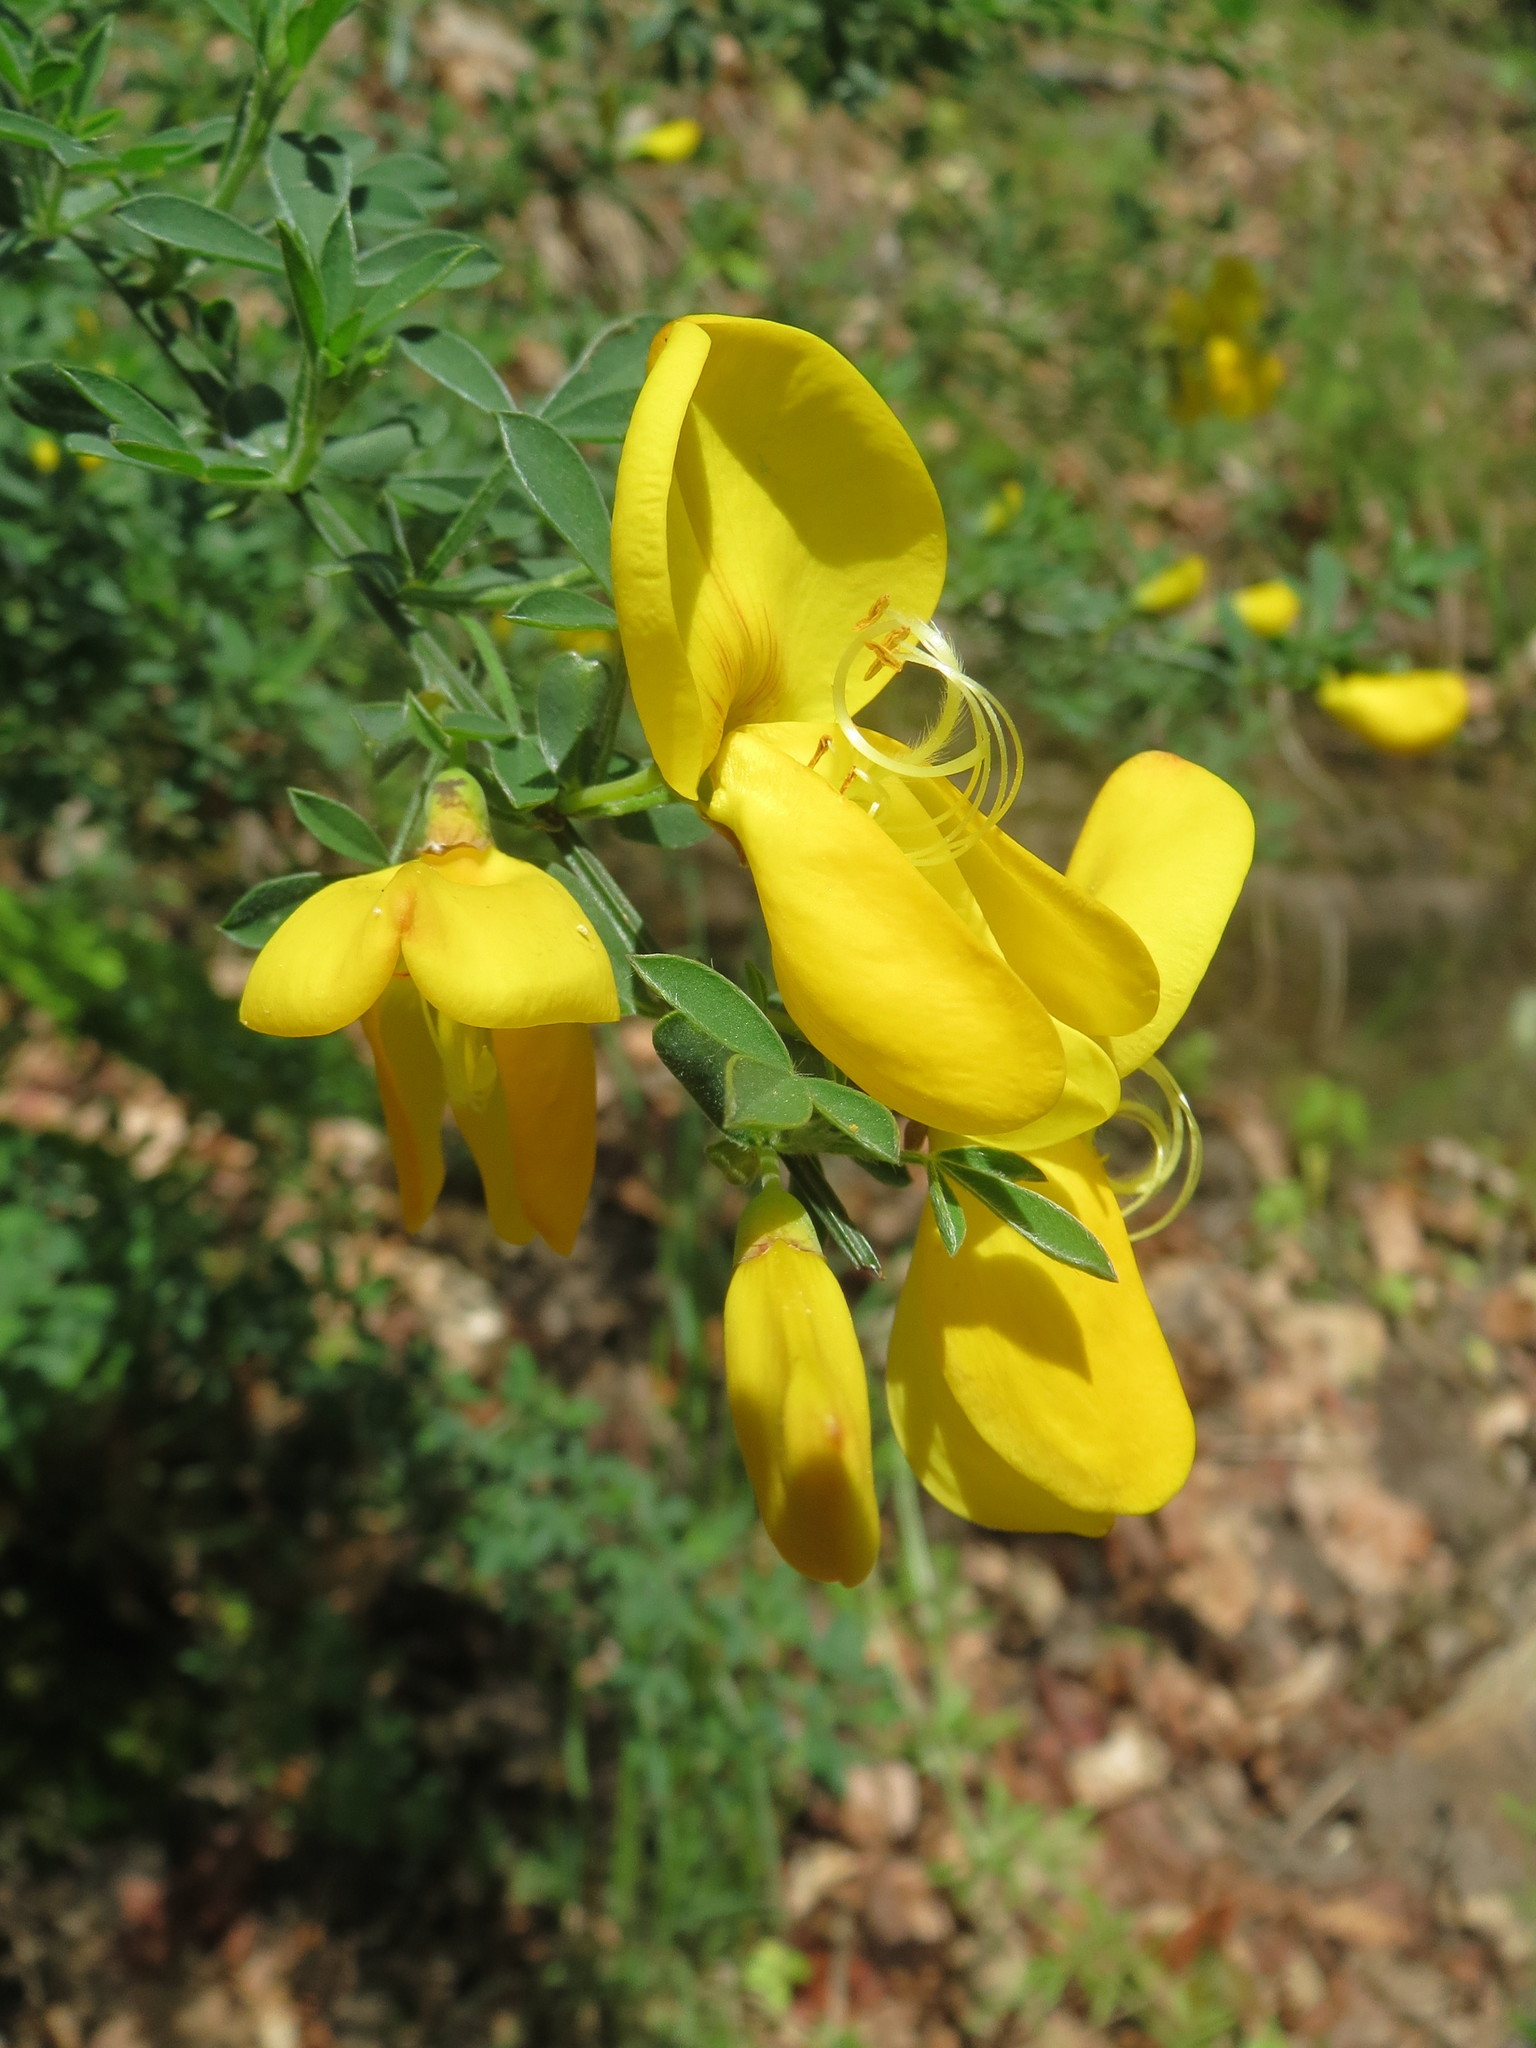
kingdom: Plantae
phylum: Tracheophyta
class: Magnoliopsida
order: Fabales
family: Fabaceae
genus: Cytisus
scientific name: Cytisus scoparius
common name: Scotch broom
